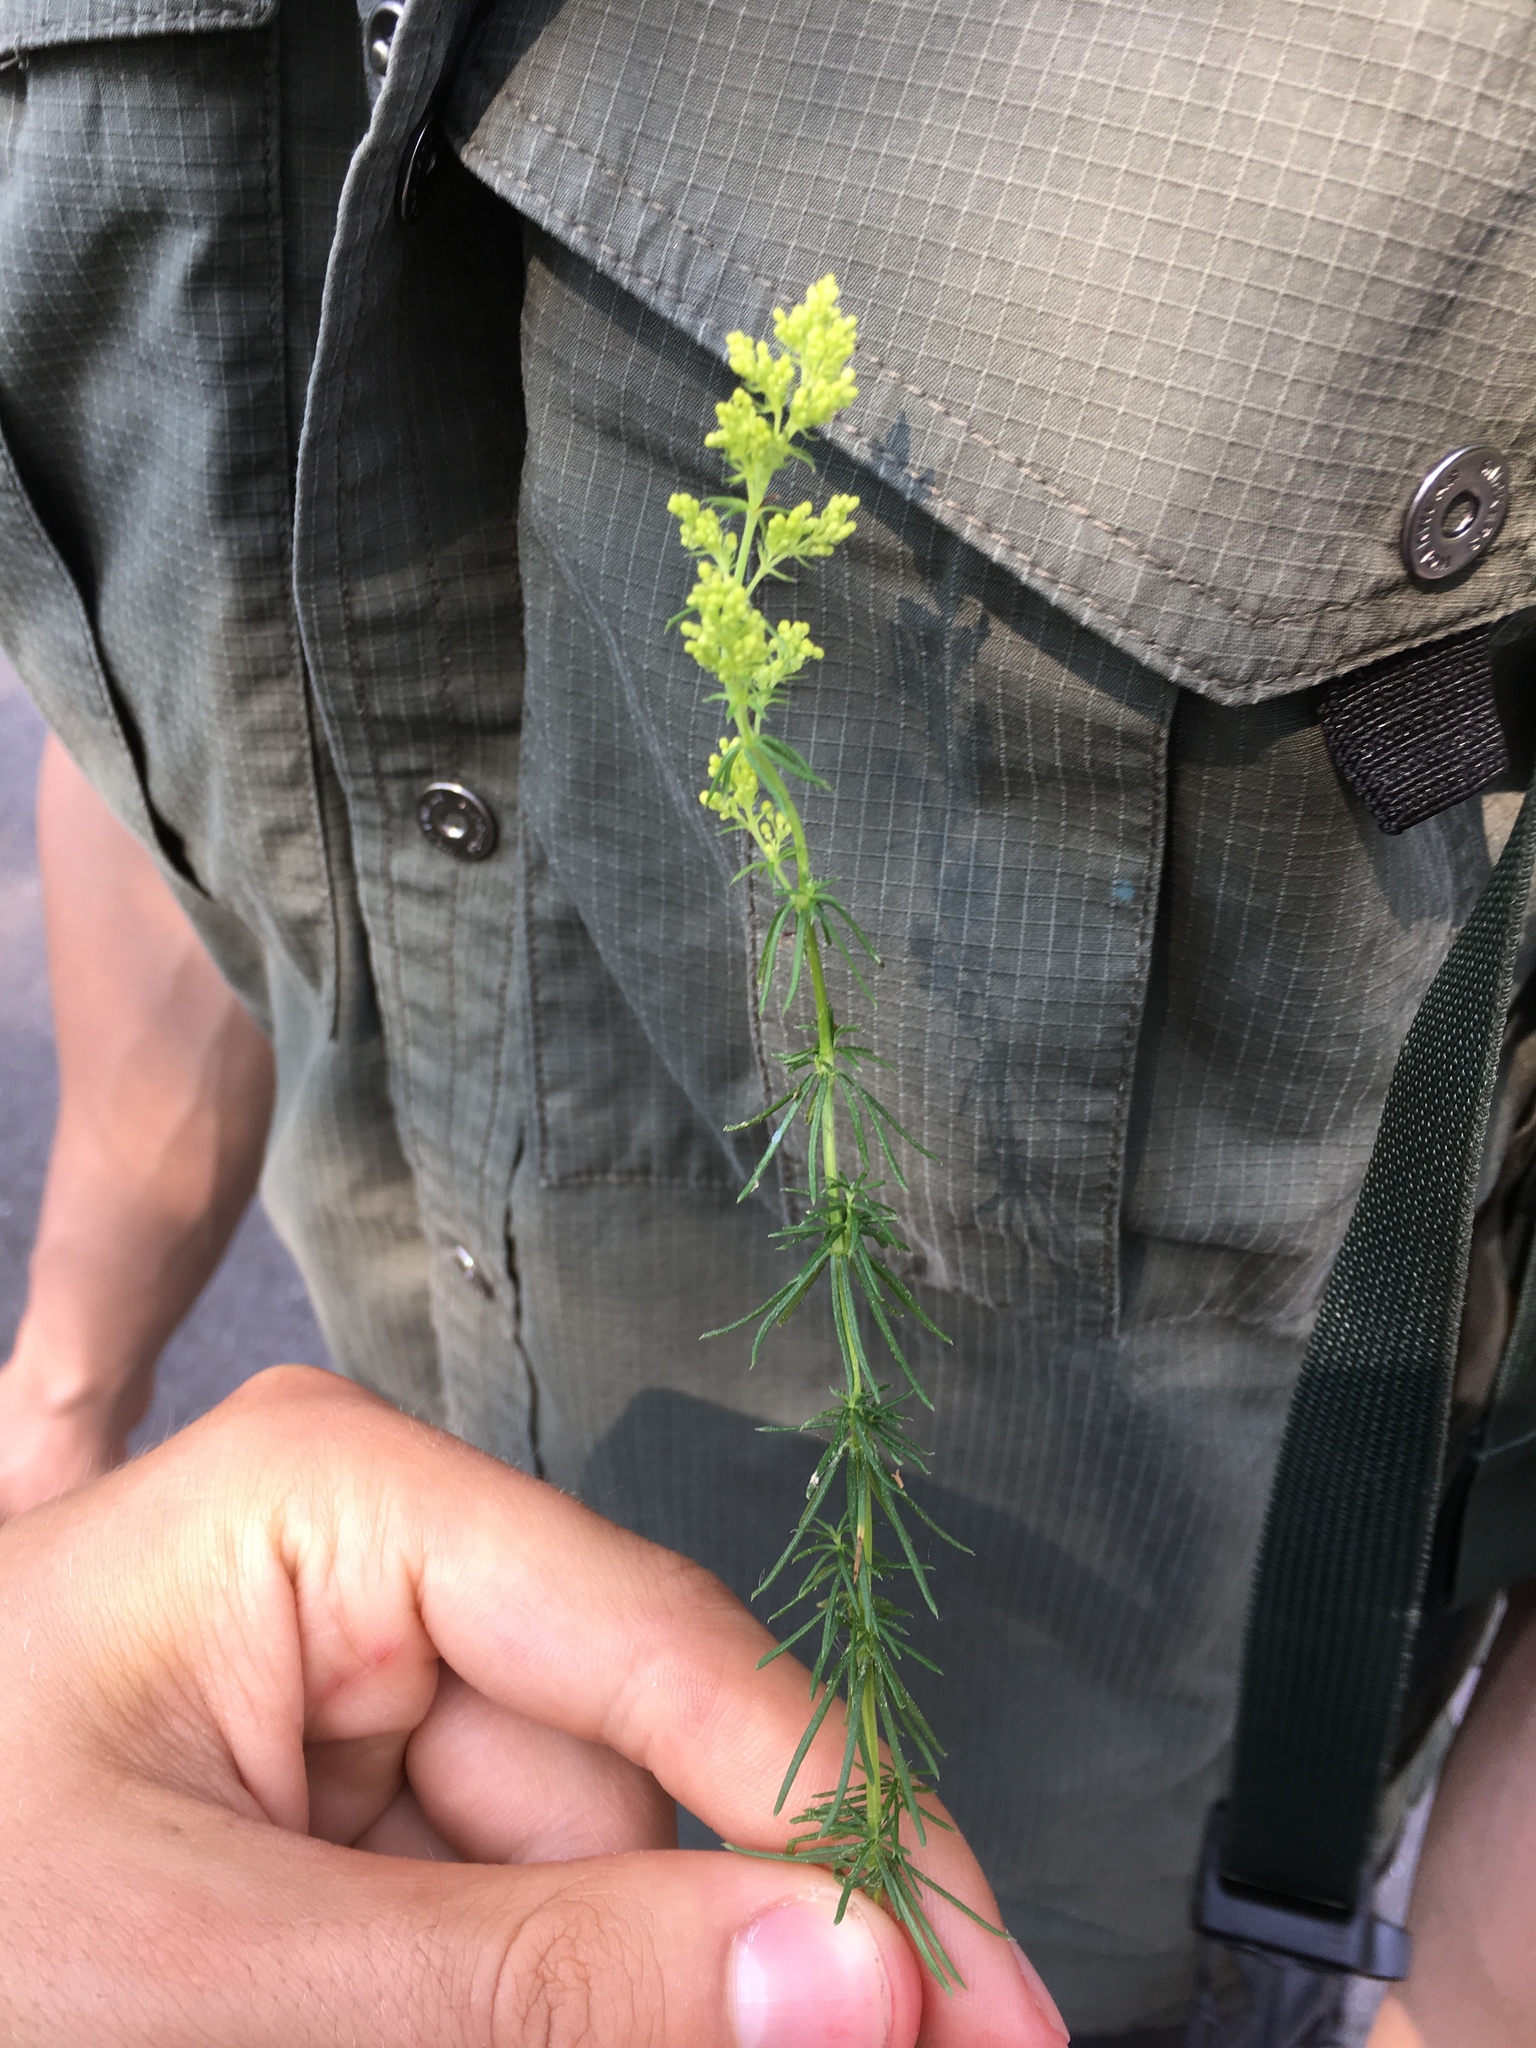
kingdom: Plantae
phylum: Tracheophyta
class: Magnoliopsida
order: Gentianales
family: Rubiaceae
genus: Galium
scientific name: Galium verum
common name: Lady's bedstraw
